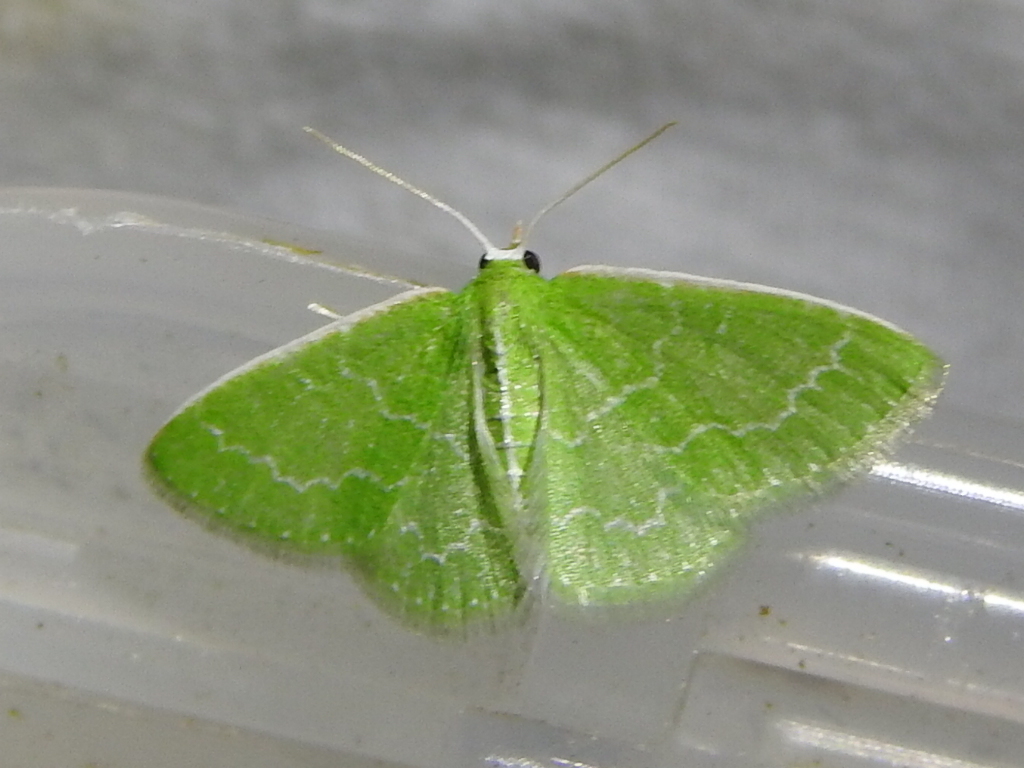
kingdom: Animalia
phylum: Arthropoda
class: Insecta
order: Lepidoptera
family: Geometridae
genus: Synchlora
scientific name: Synchlora frondaria
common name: Southern emerald
